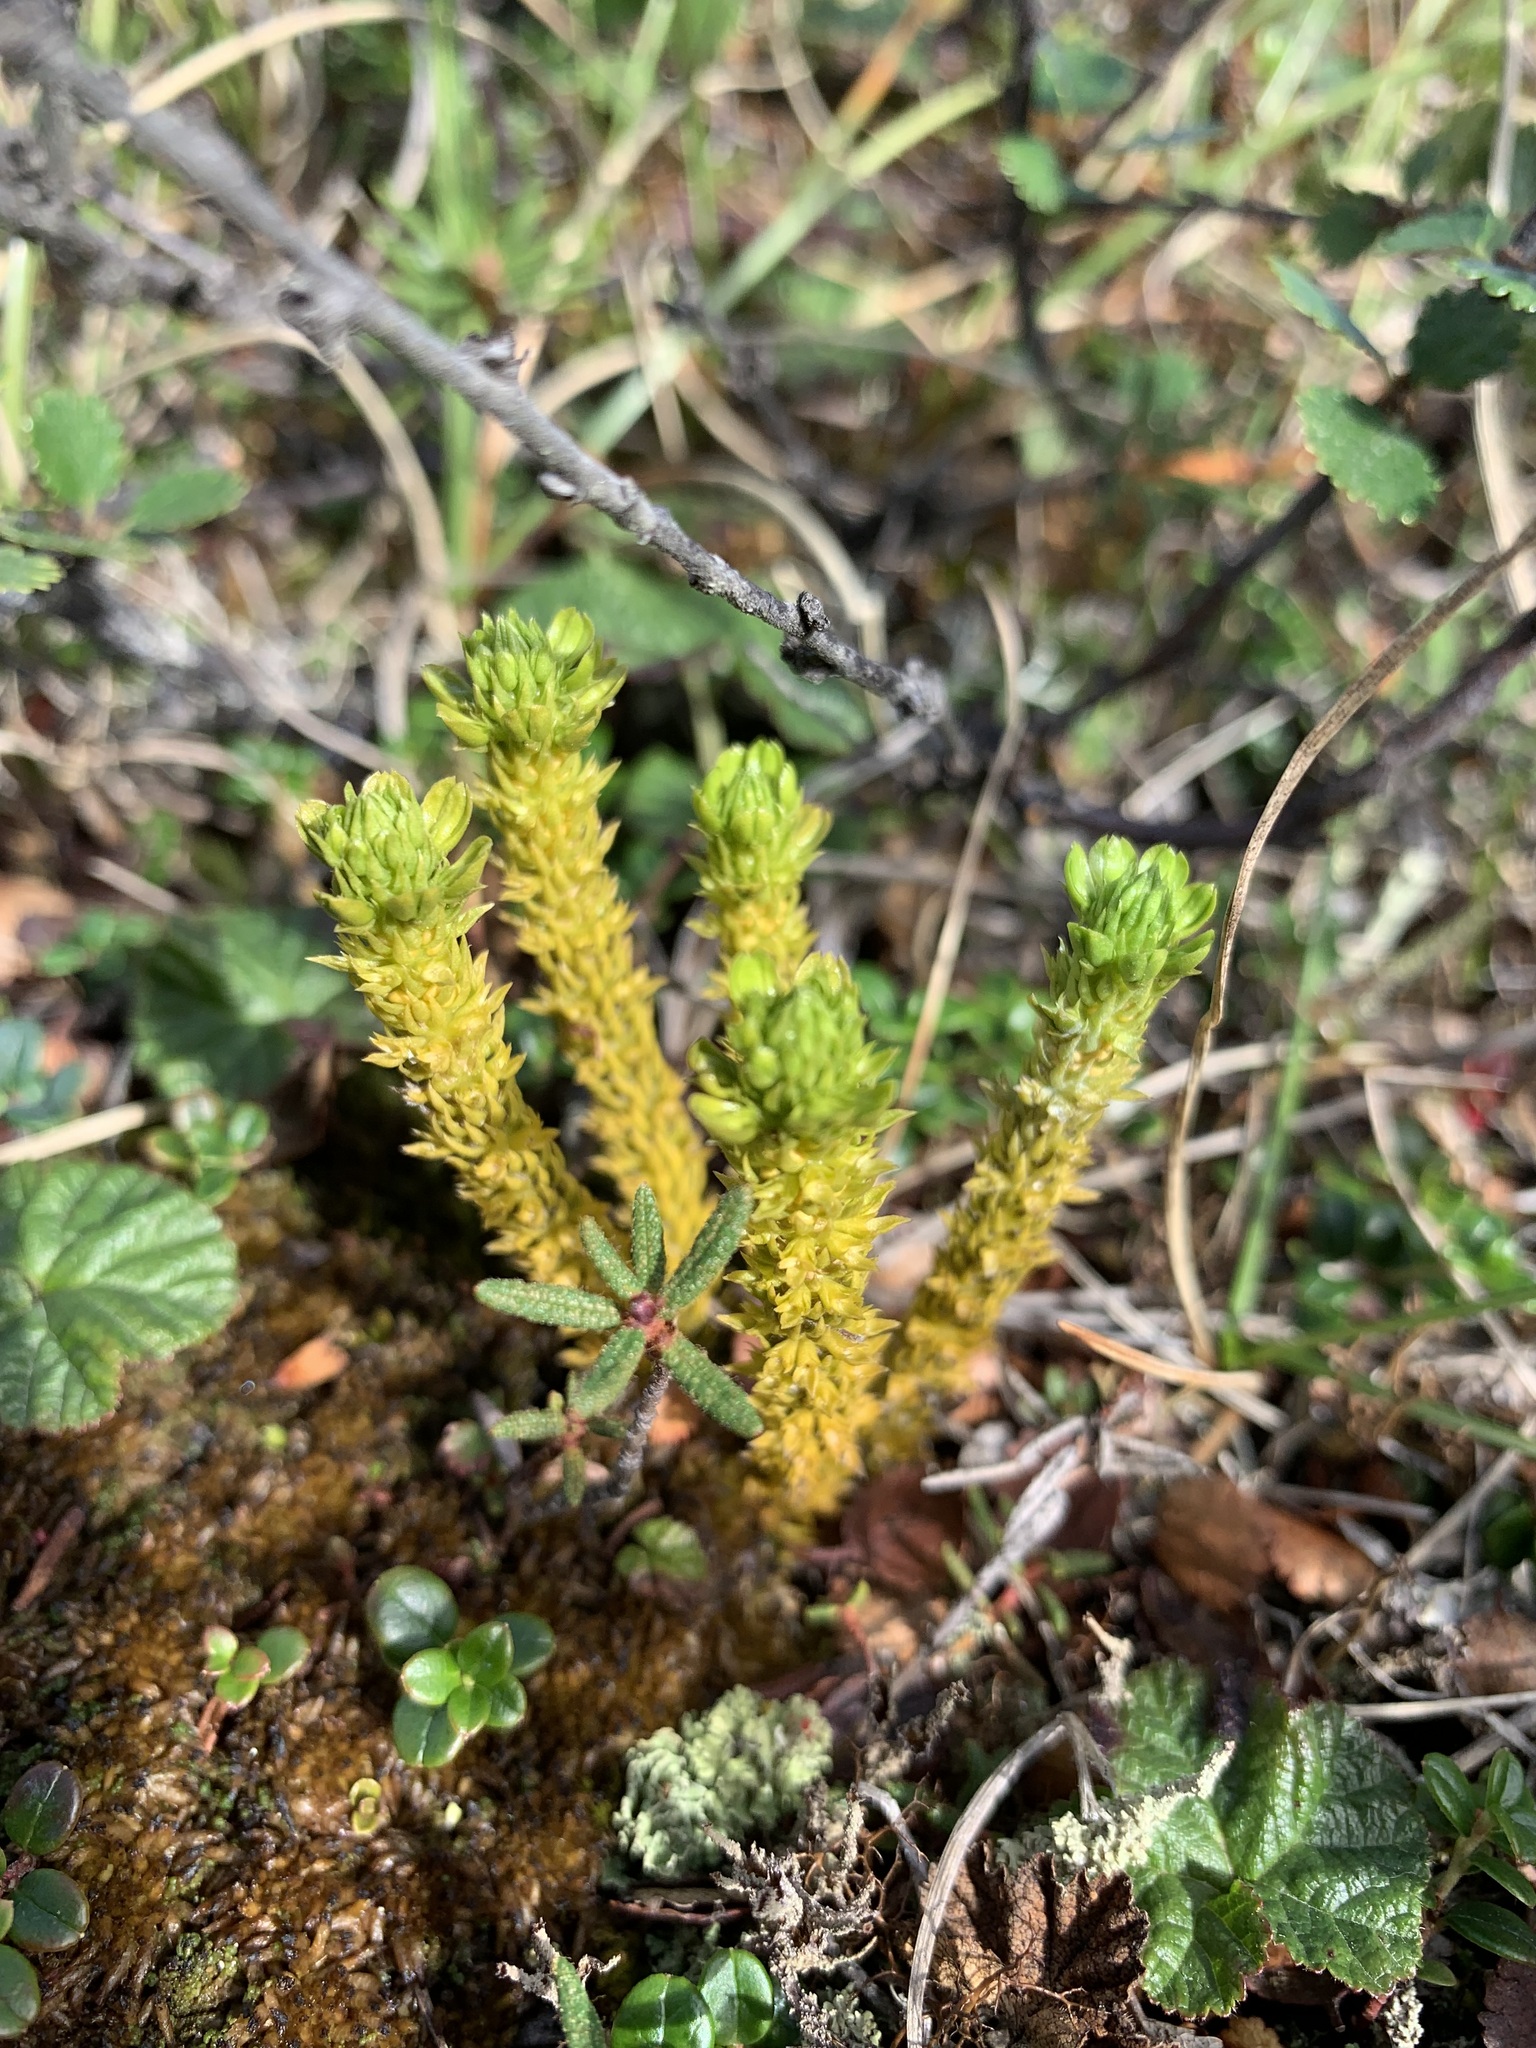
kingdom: Plantae
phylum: Tracheophyta
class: Lycopodiopsida
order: Lycopodiales
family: Lycopodiaceae
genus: Huperzia
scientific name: Huperzia selago
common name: Northern firmoss
